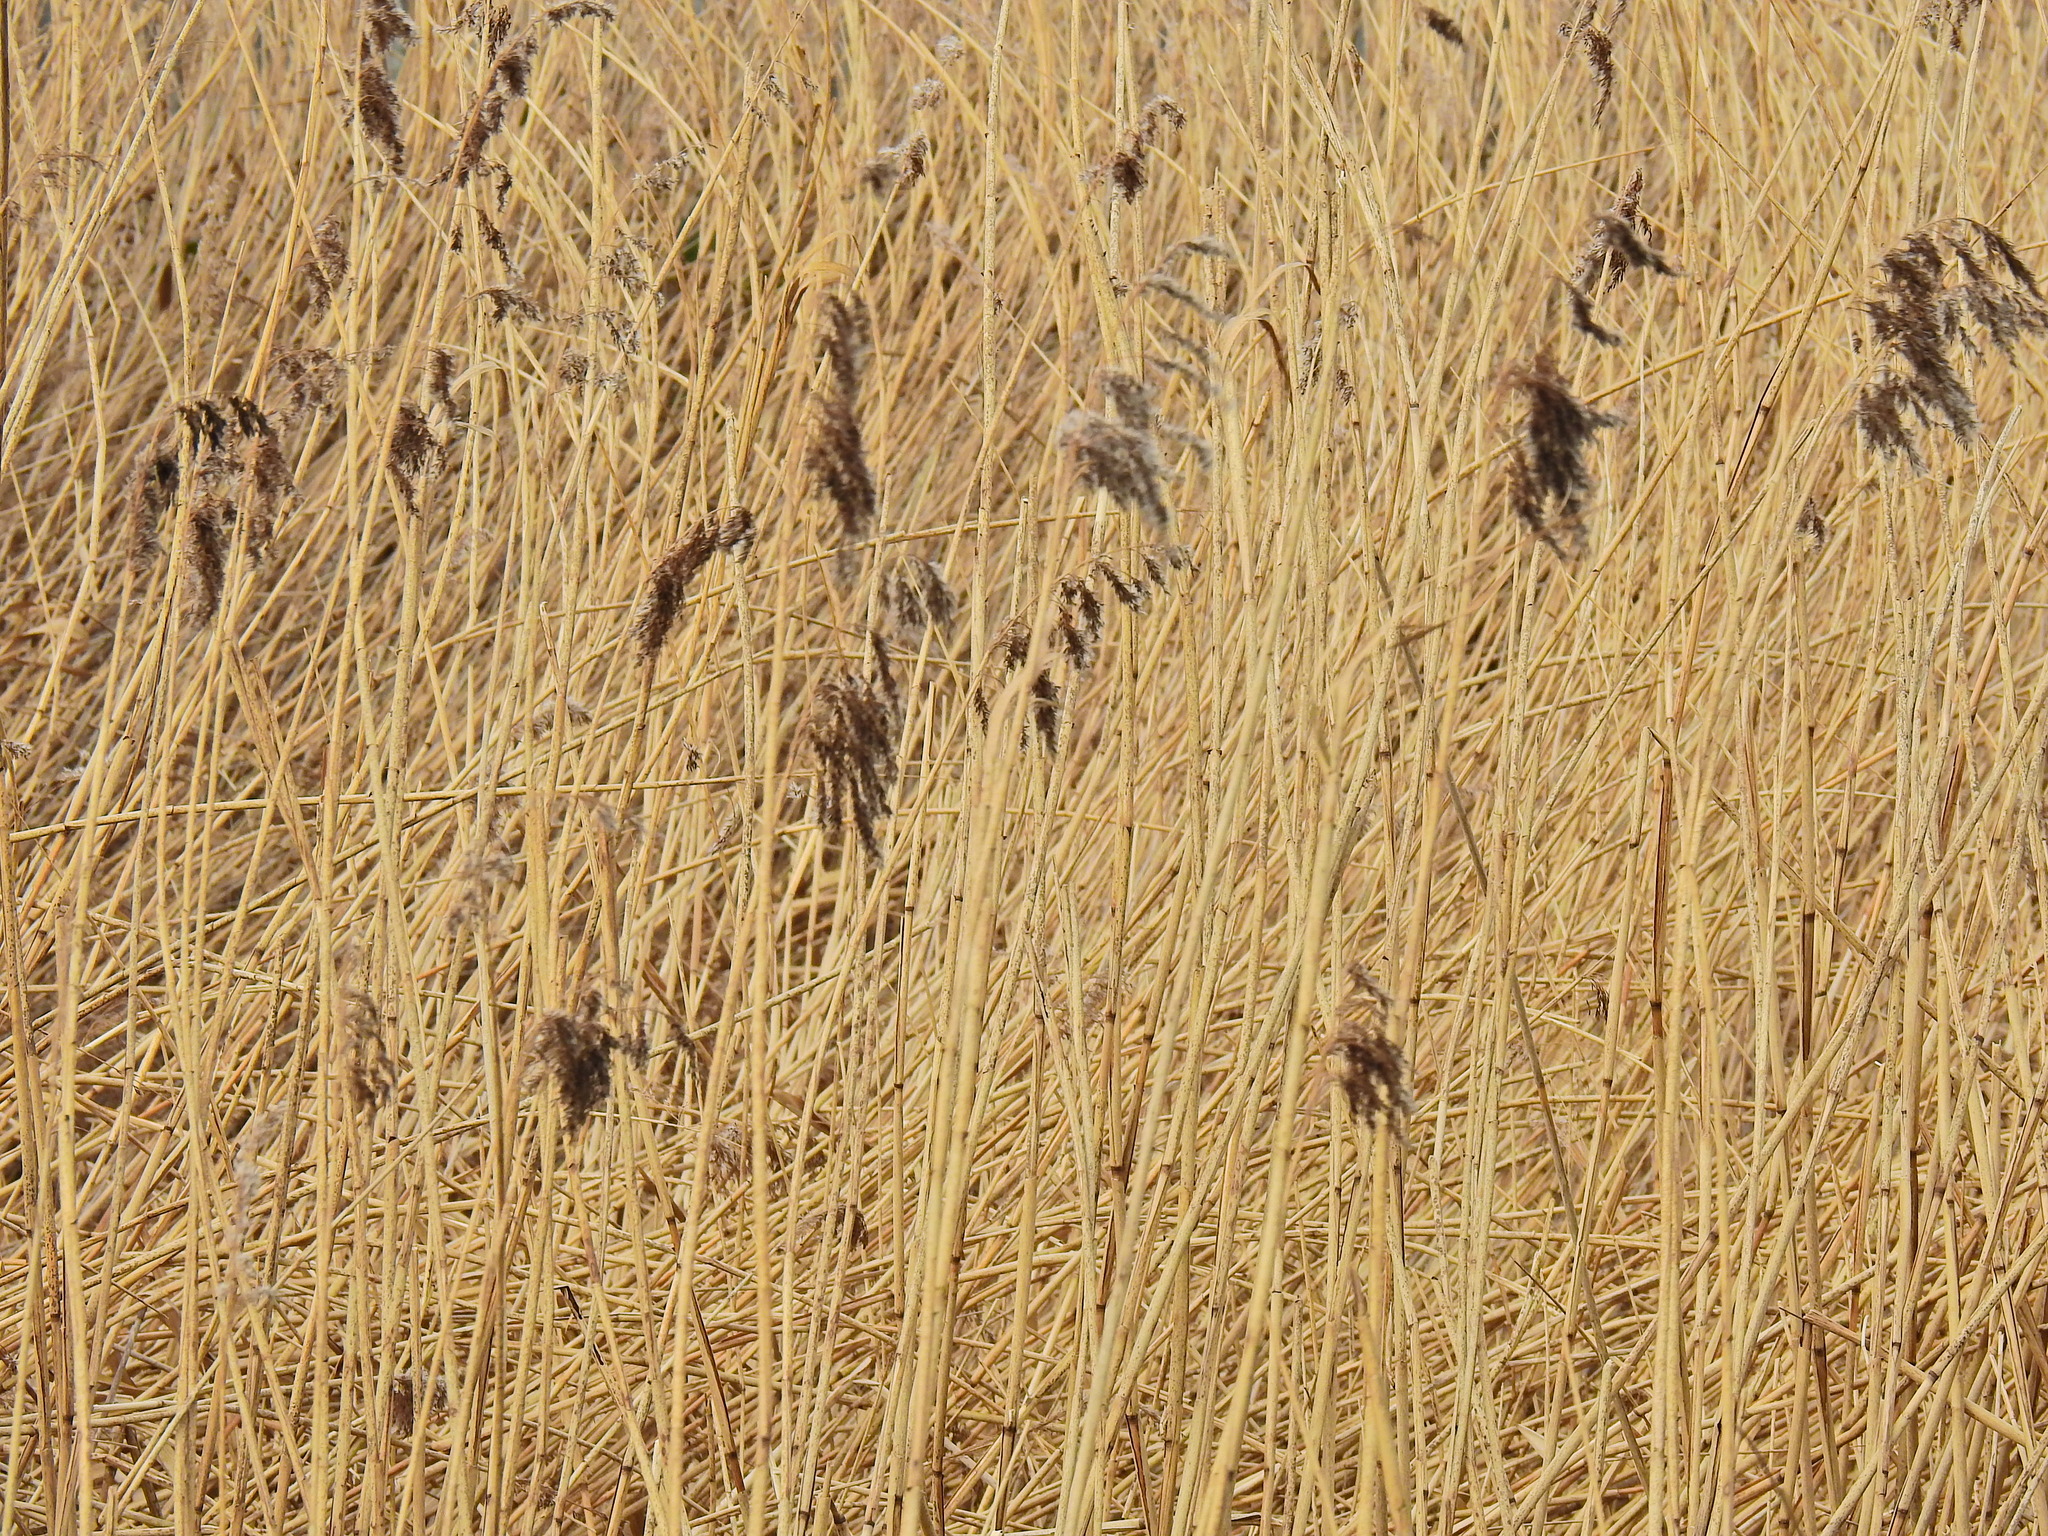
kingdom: Plantae
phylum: Tracheophyta
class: Liliopsida
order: Poales
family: Poaceae
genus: Phragmites
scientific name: Phragmites australis
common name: Common reed
